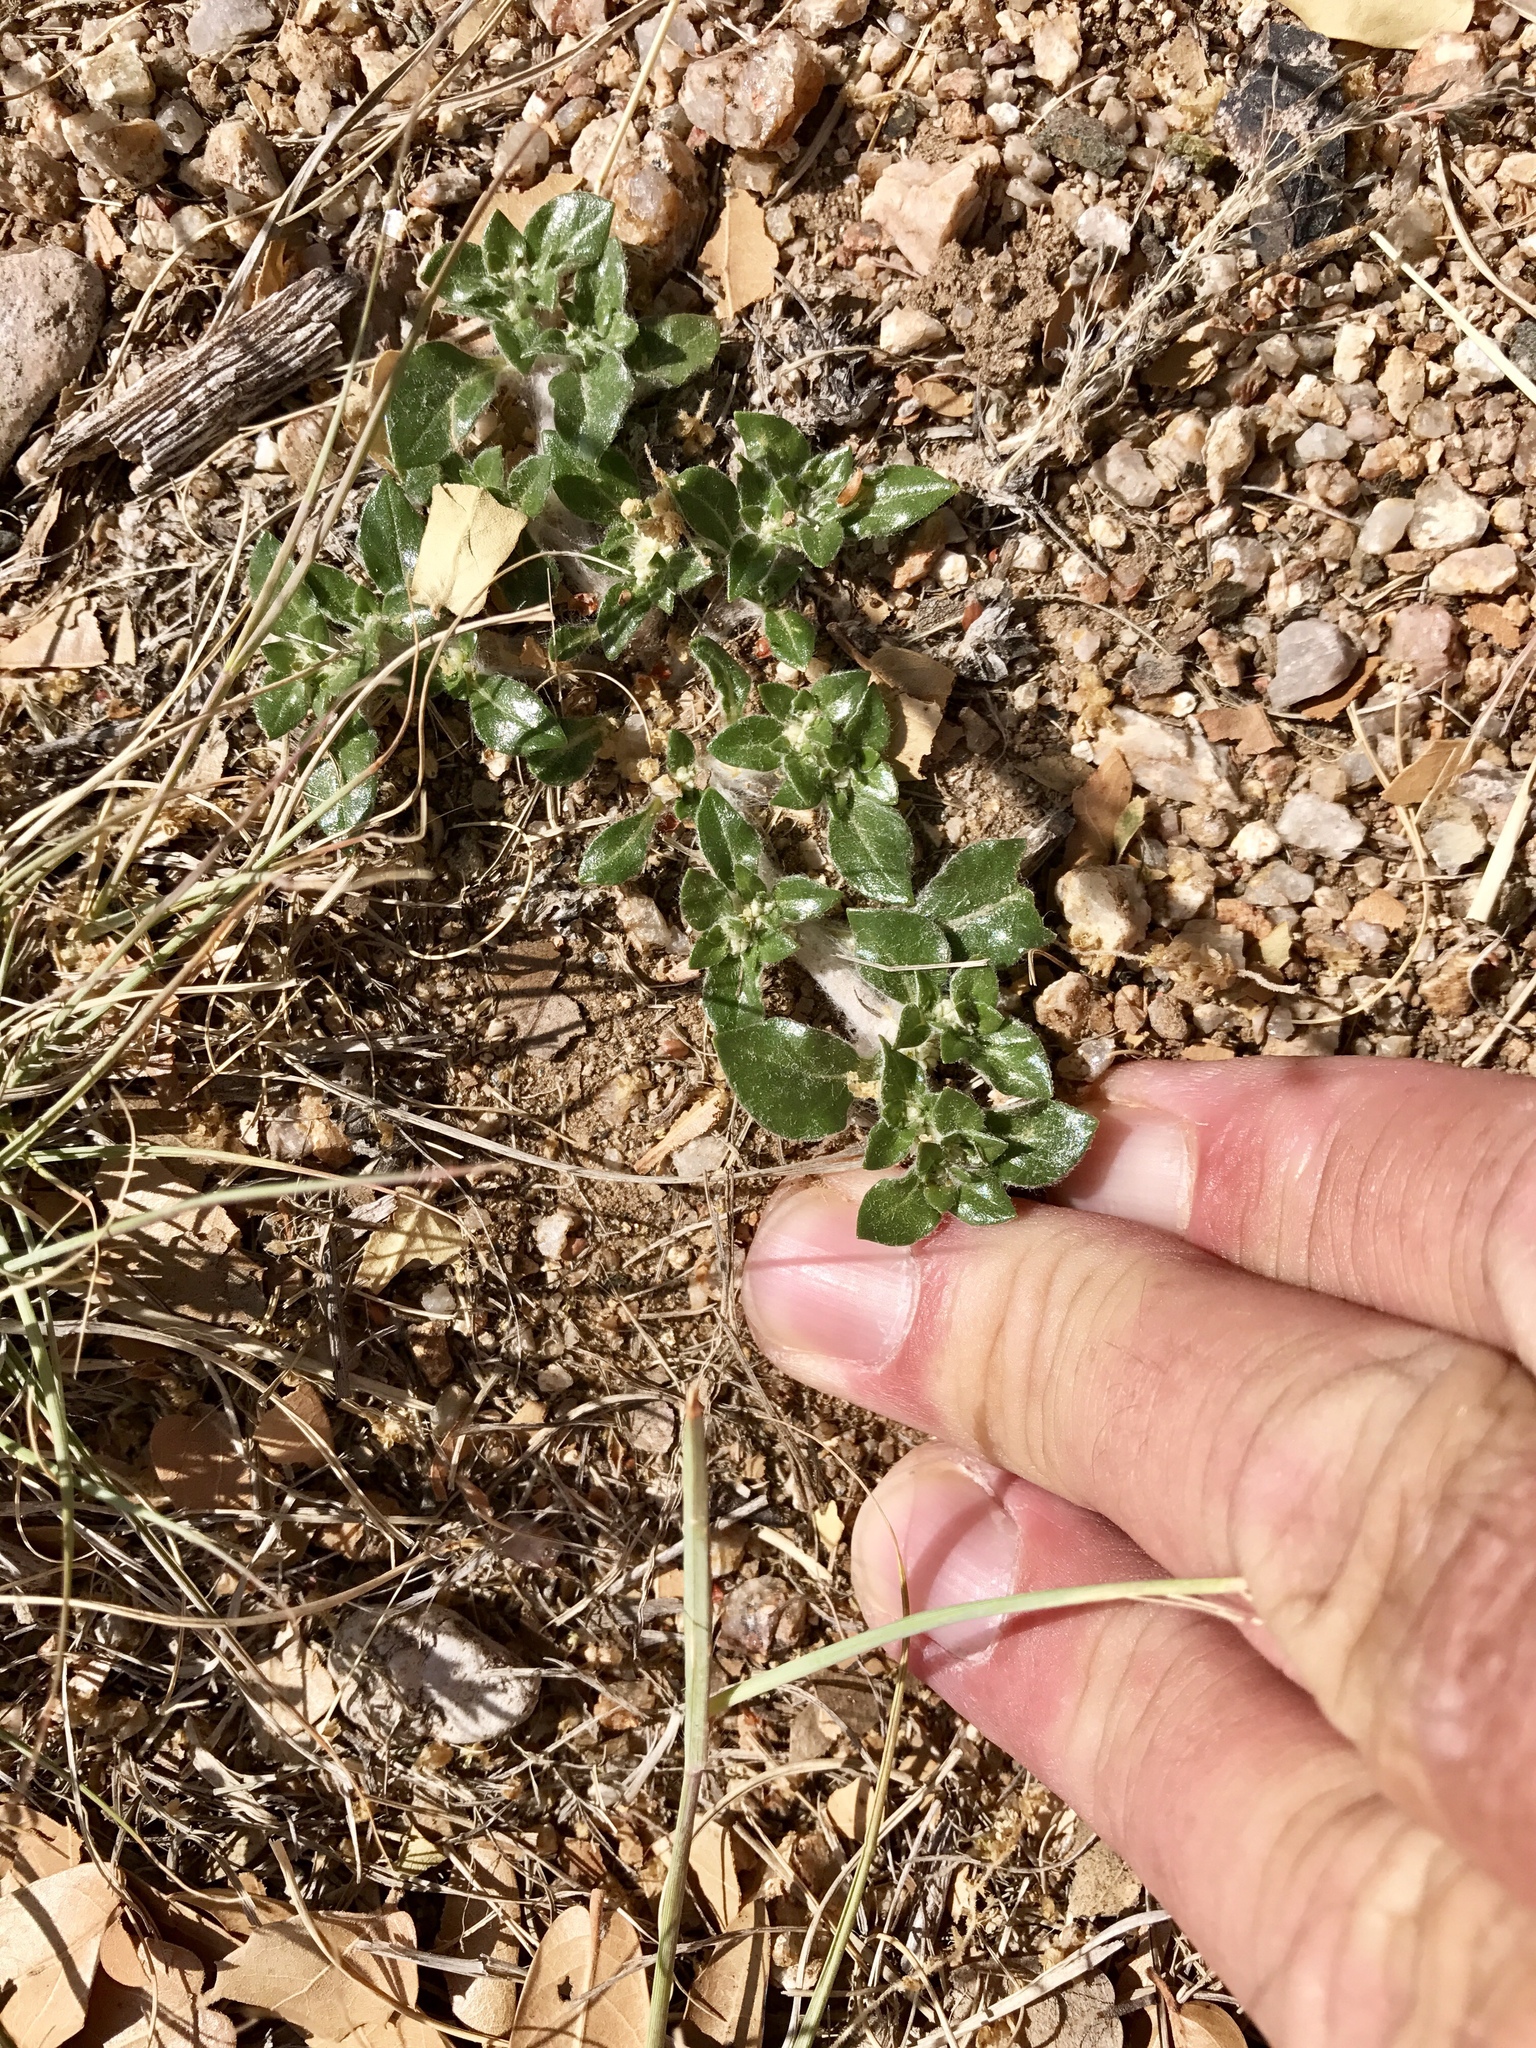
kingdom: Plantae
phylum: Tracheophyta
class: Magnoliopsida
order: Caryophyllales
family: Amaranthaceae
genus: Guilleminea
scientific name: Guilleminea densa
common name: Small matweed
